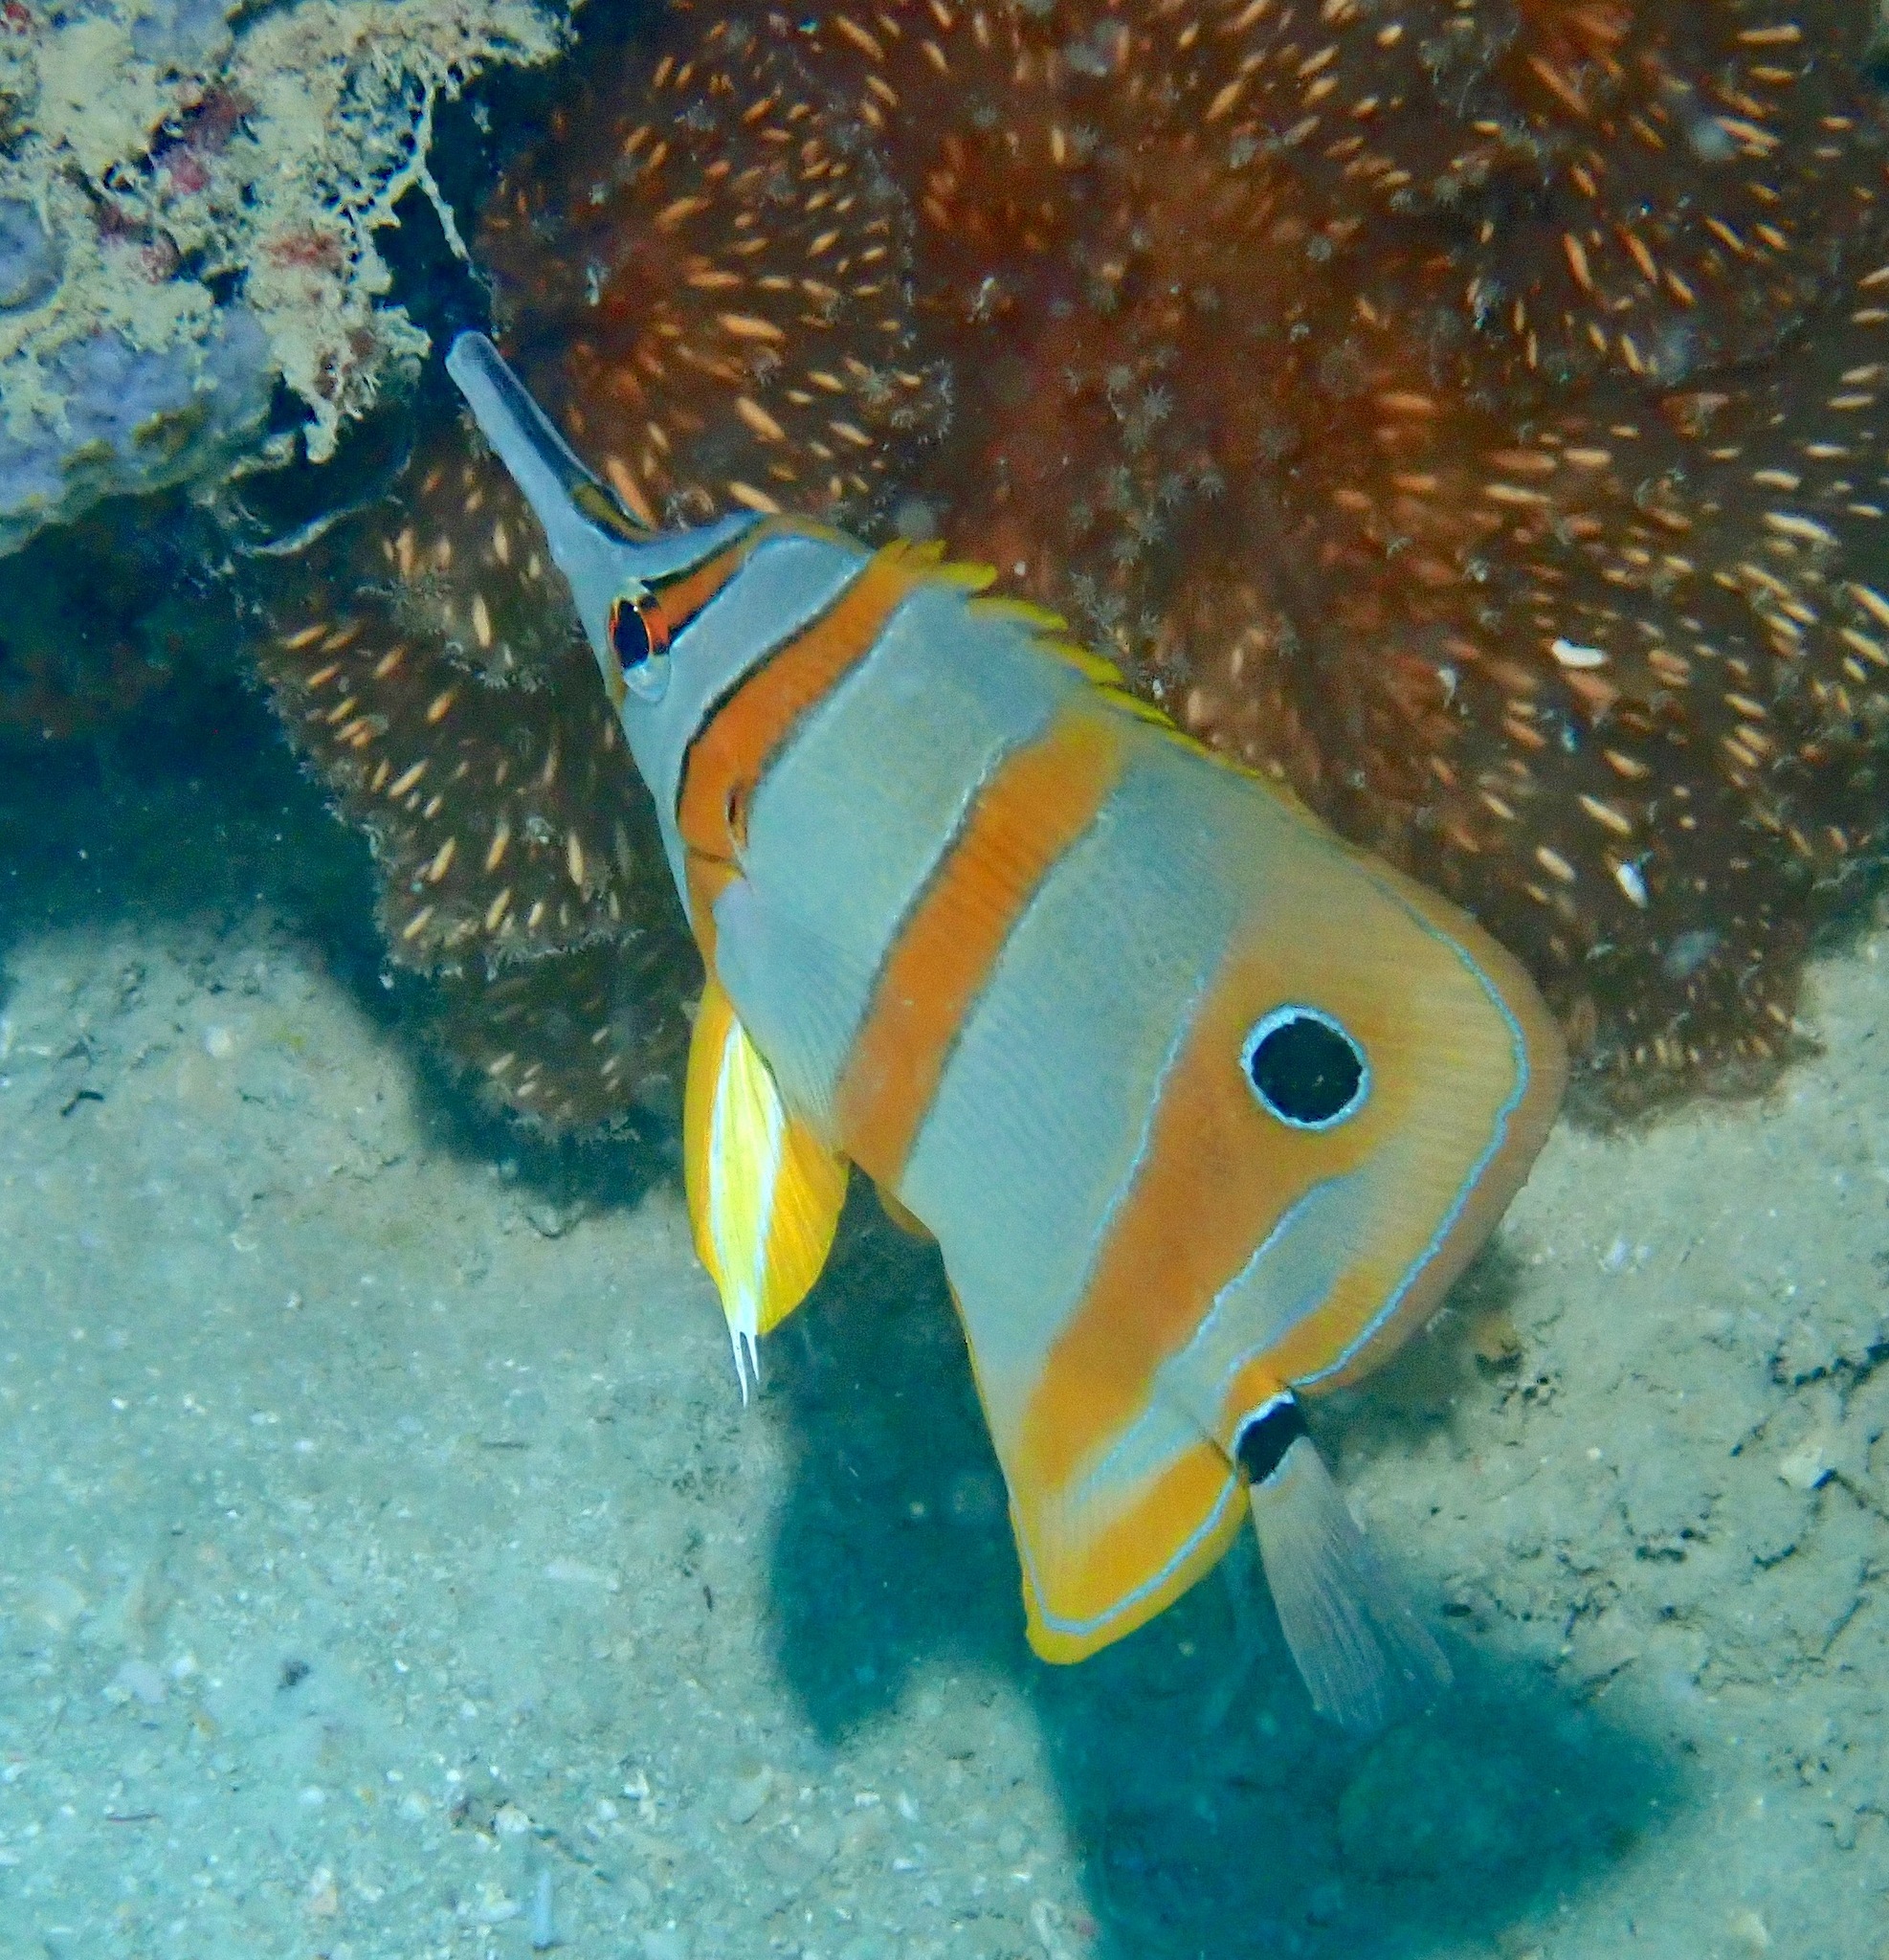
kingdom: Animalia
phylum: Chordata
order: Perciformes
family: Chaetodontidae
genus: Chelmon
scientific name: Chelmon rostratus
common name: Beaked butterflyfish
